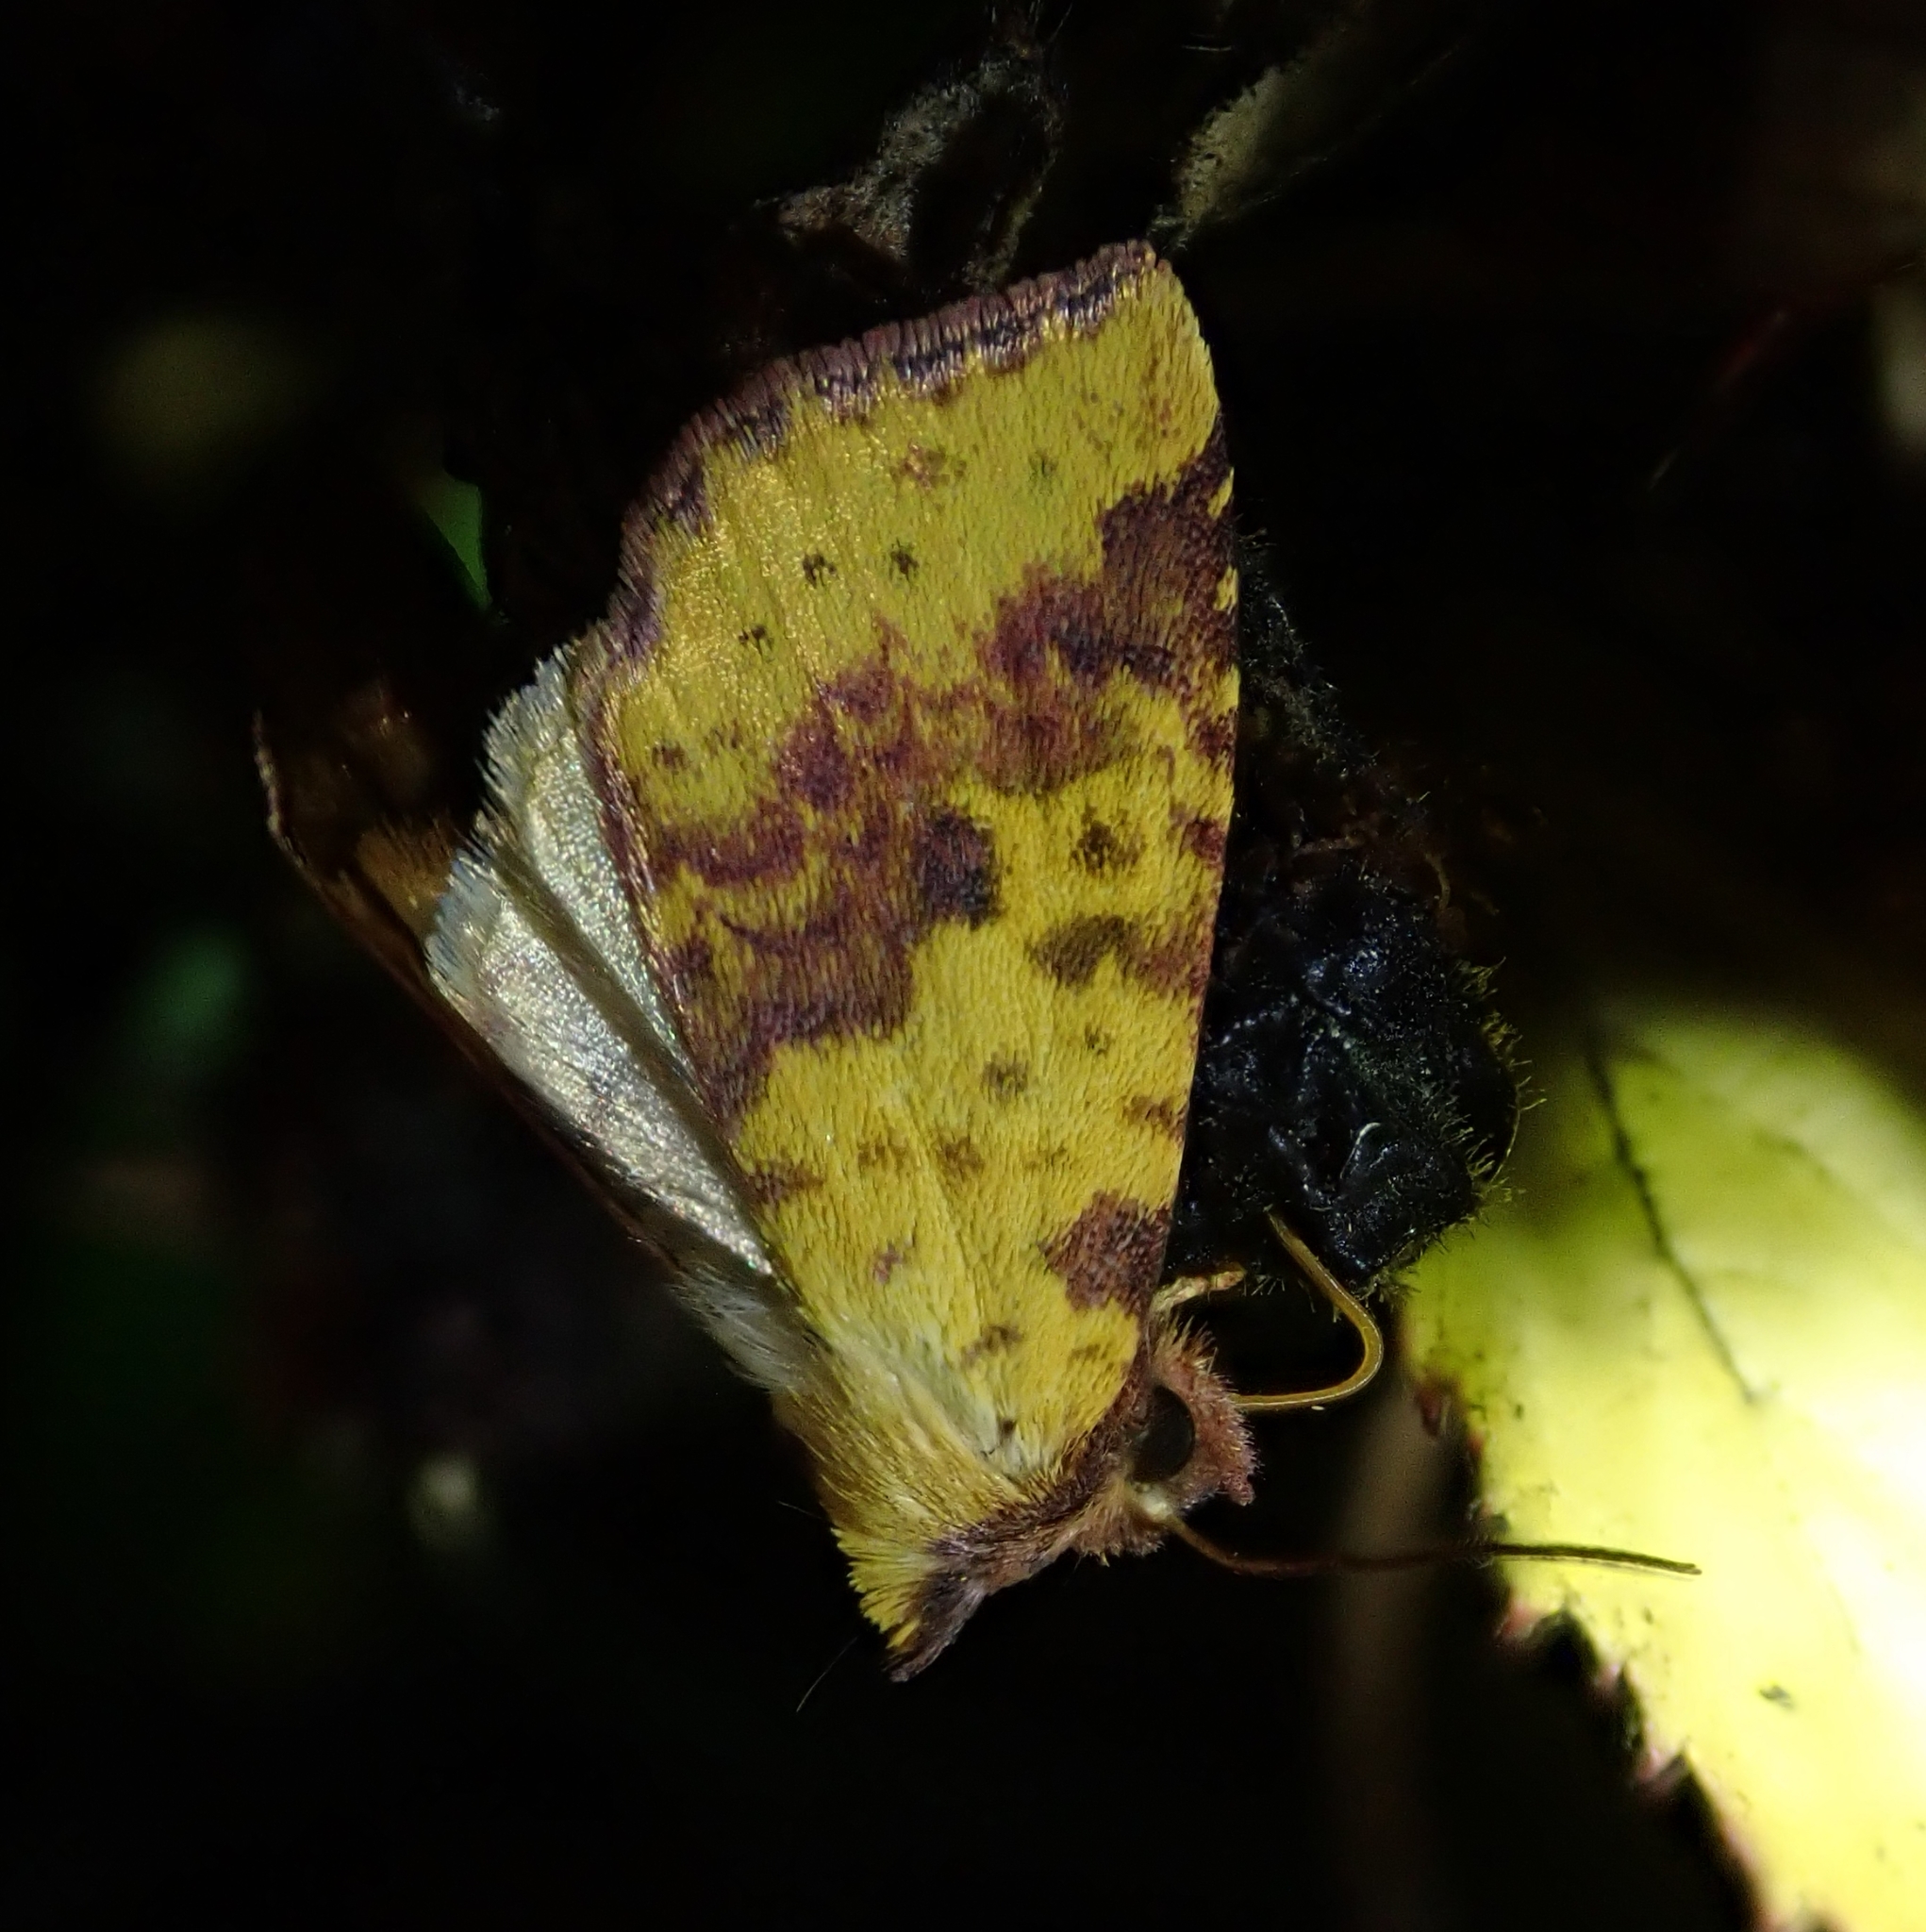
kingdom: Animalia
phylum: Arthropoda
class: Insecta
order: Lepidoptera
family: Noctuidae
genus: Xanthia
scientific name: Xanthia togata
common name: Pink-barred sallow
